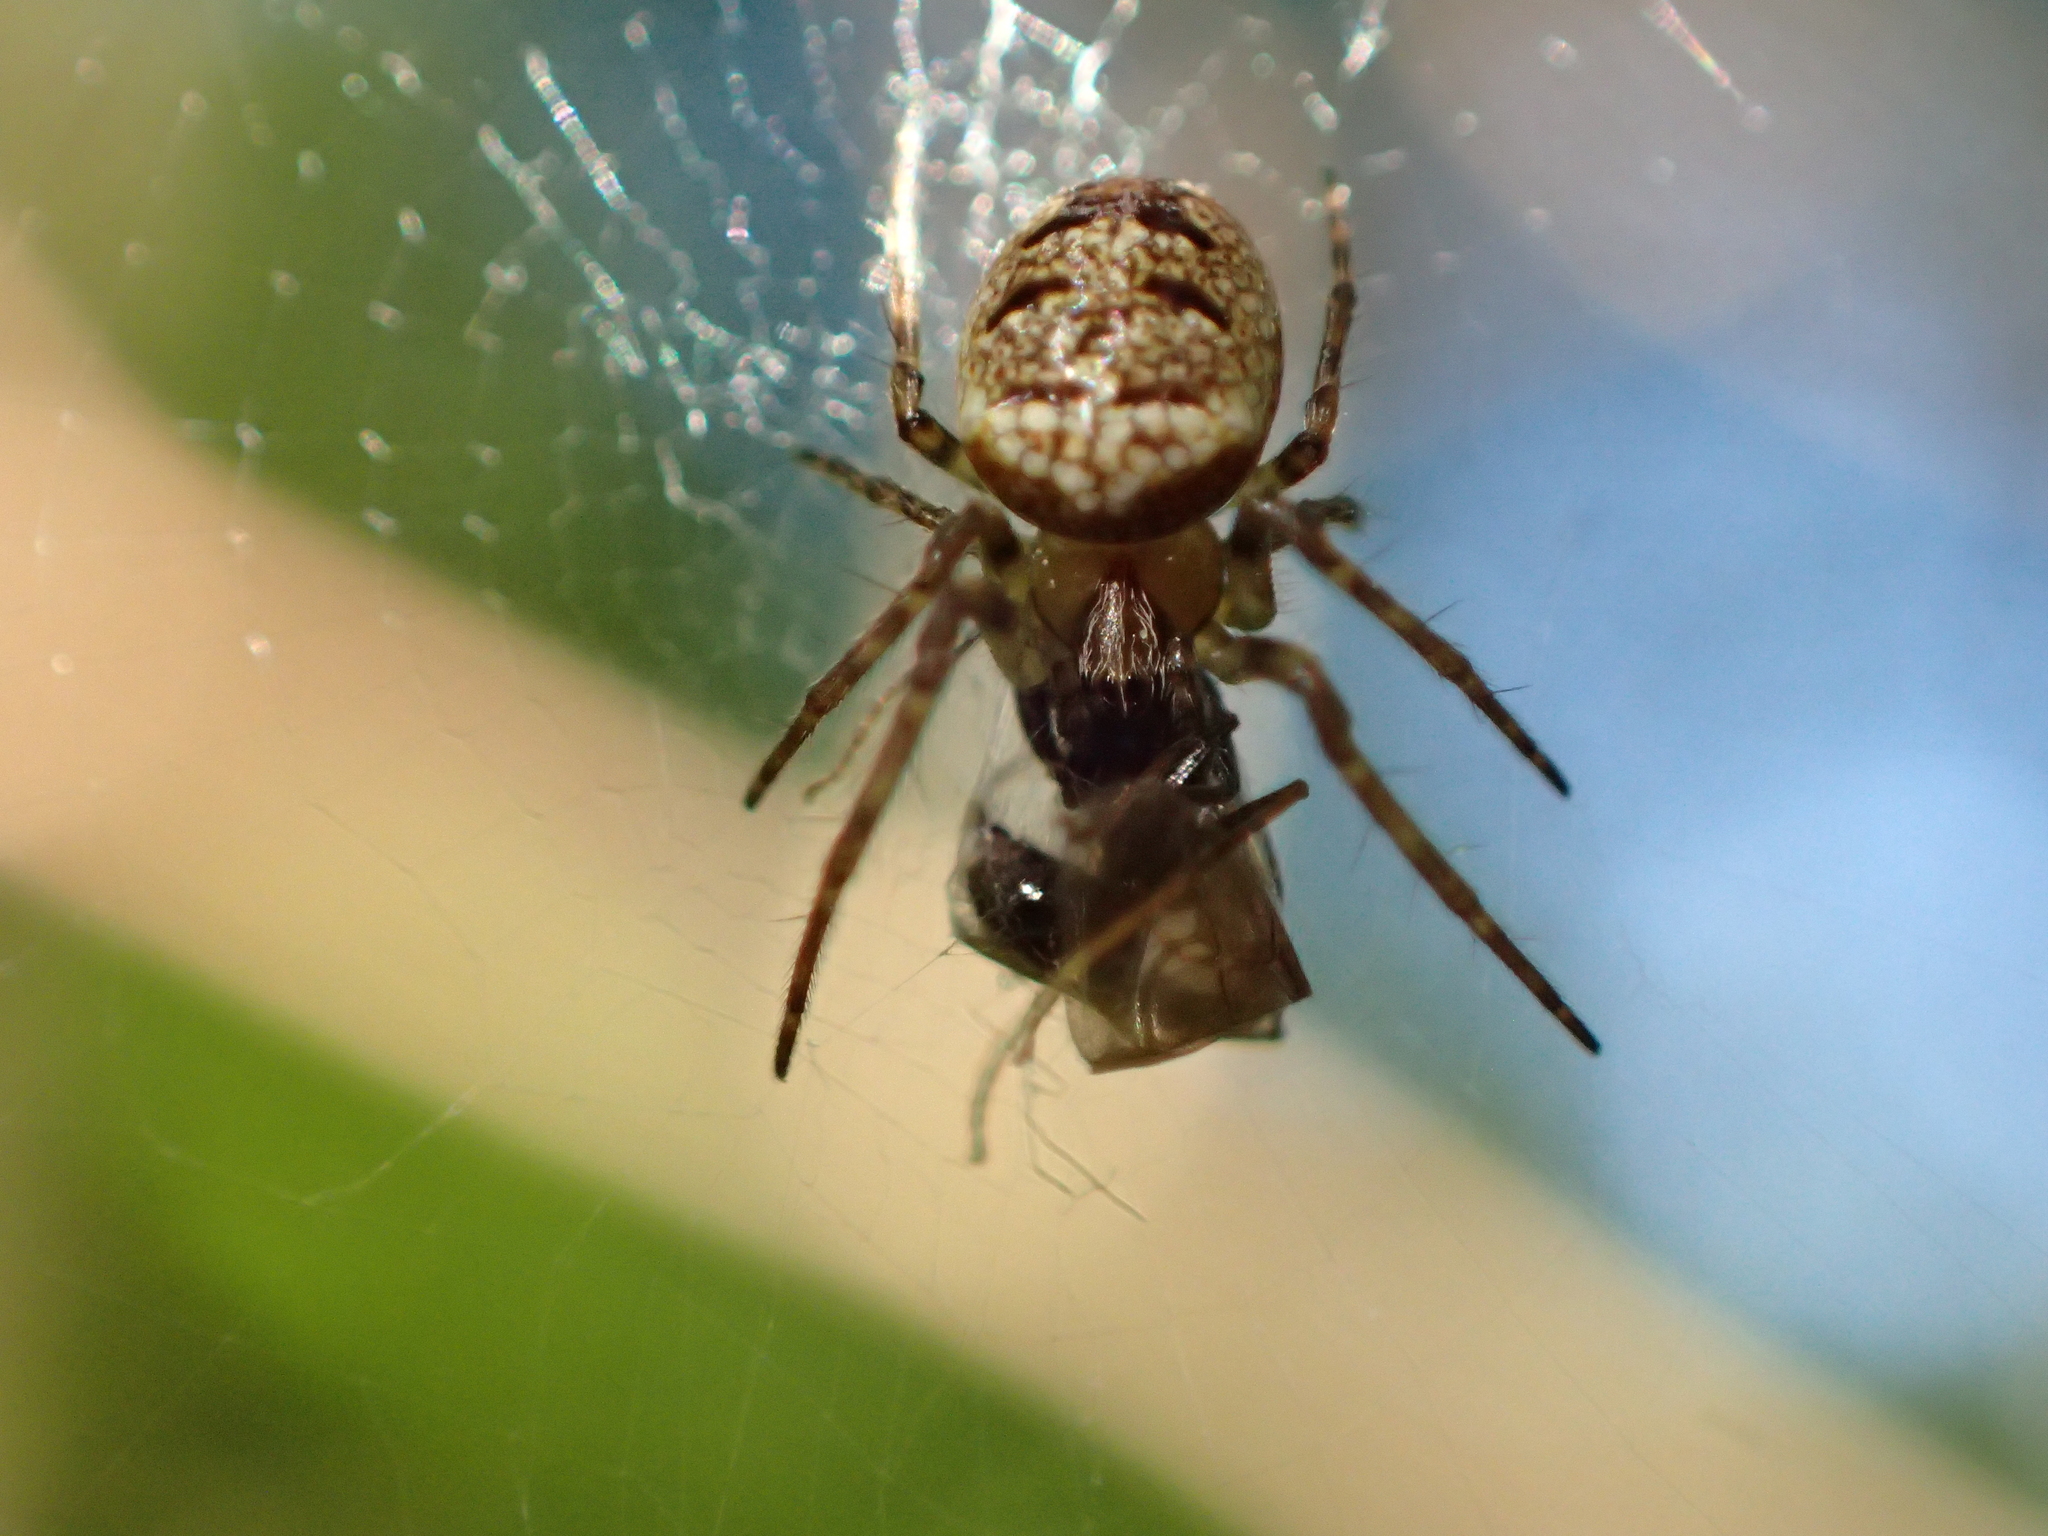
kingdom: Animalia
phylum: Arthropoda
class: Arachnida
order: Araneae
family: Araneidae
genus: Zilla
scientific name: Zilla diodia
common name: Zilla diodia
